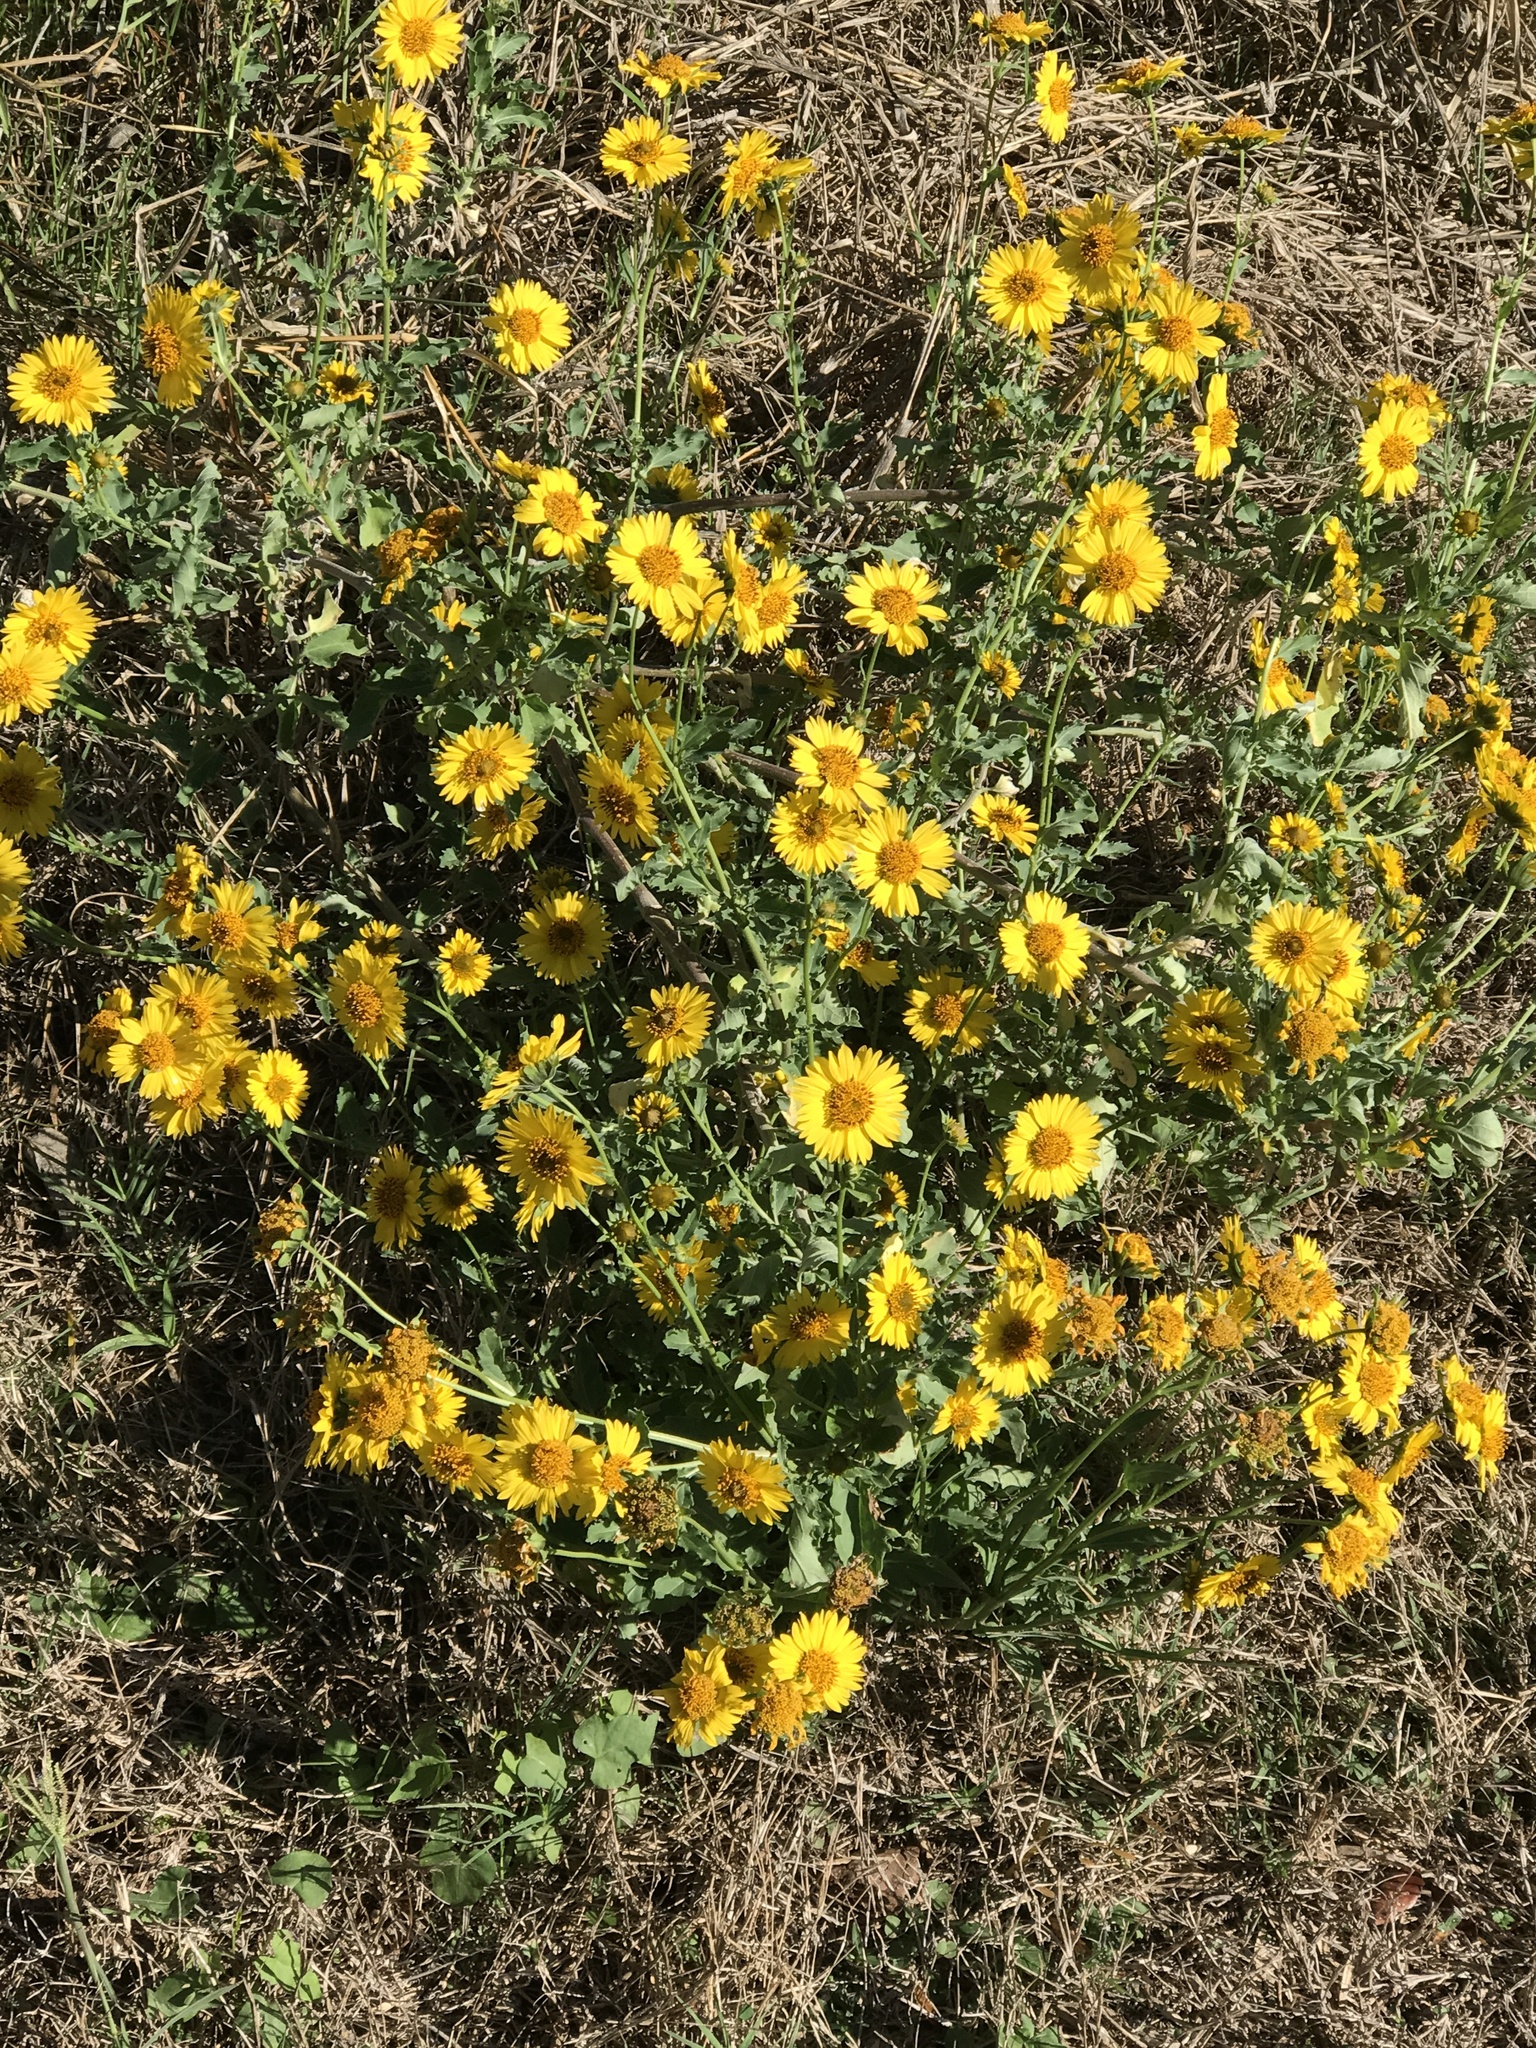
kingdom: Plantae
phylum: Tracheophyta
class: Magnoliopsida
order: Asterales
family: Asteraceae
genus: Verbesina
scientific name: Verbesina encelioides
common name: Golden crownbeard
